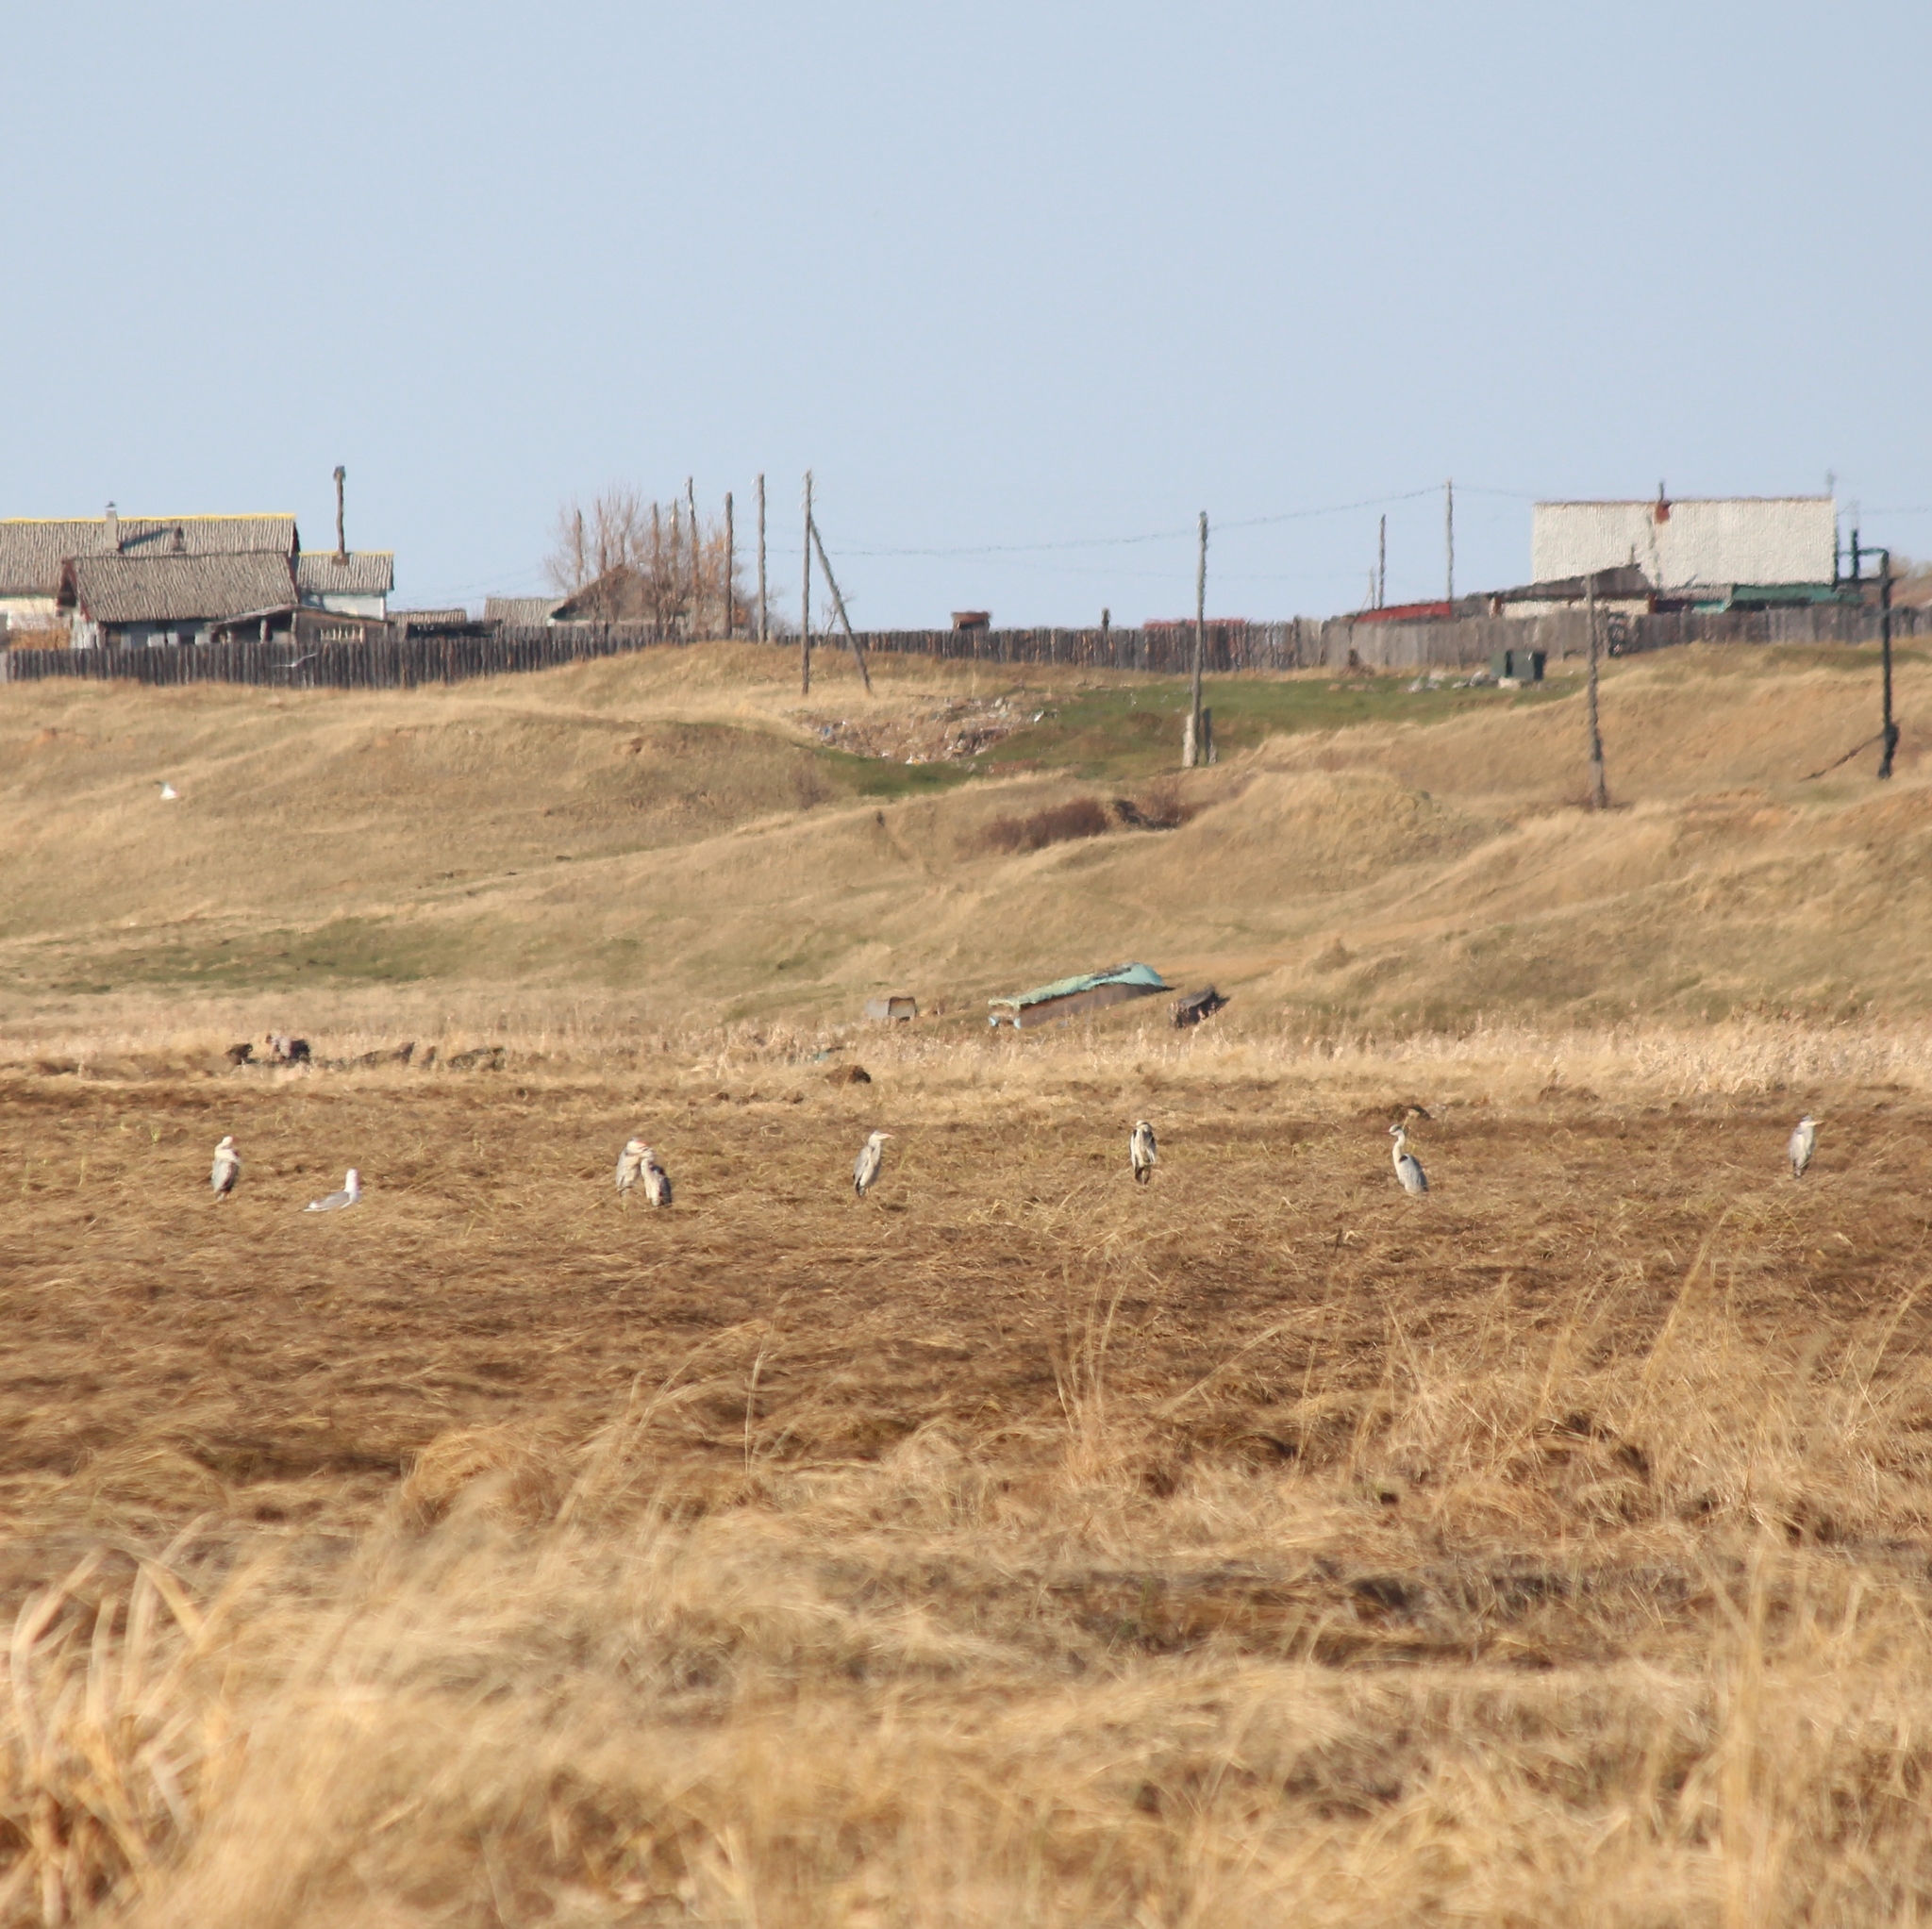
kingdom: Animalia
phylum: Chordata
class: Aves
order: Pelecaniformes
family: Ardeidae
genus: Ardea
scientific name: Ardea cinerea
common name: Grey heron
